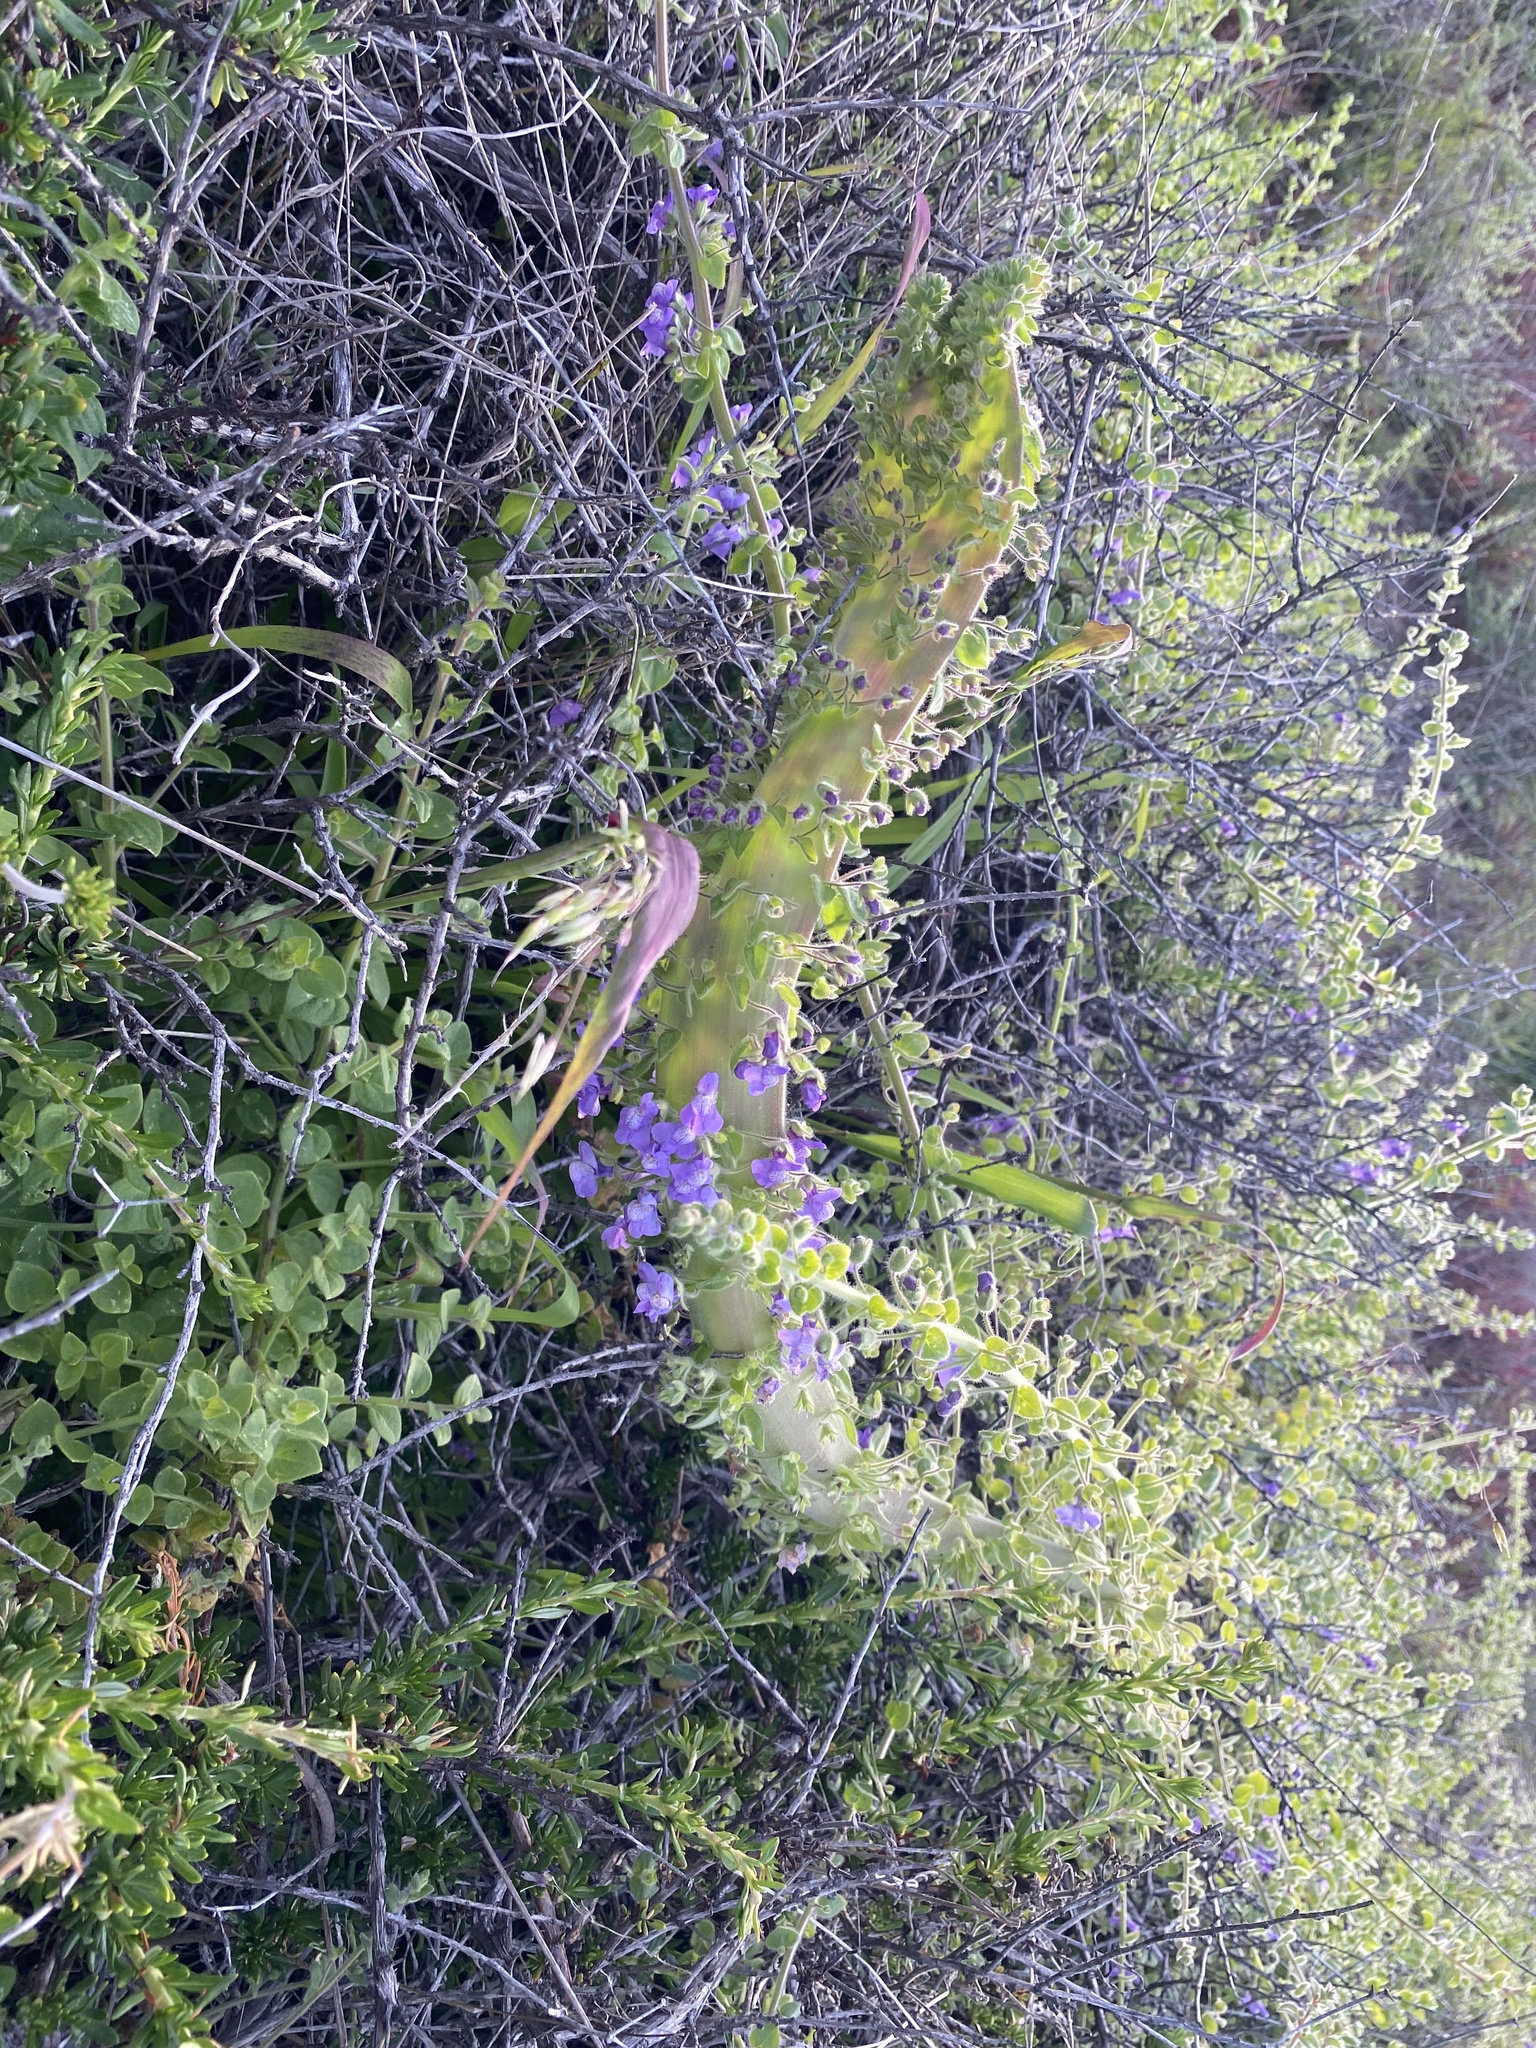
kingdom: Plantae
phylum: Tracheophyta
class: Magnoliopsida
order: Lamiales
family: Plantaginaceae
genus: Sairocarpus
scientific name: Sairocarpus nuttallianus
